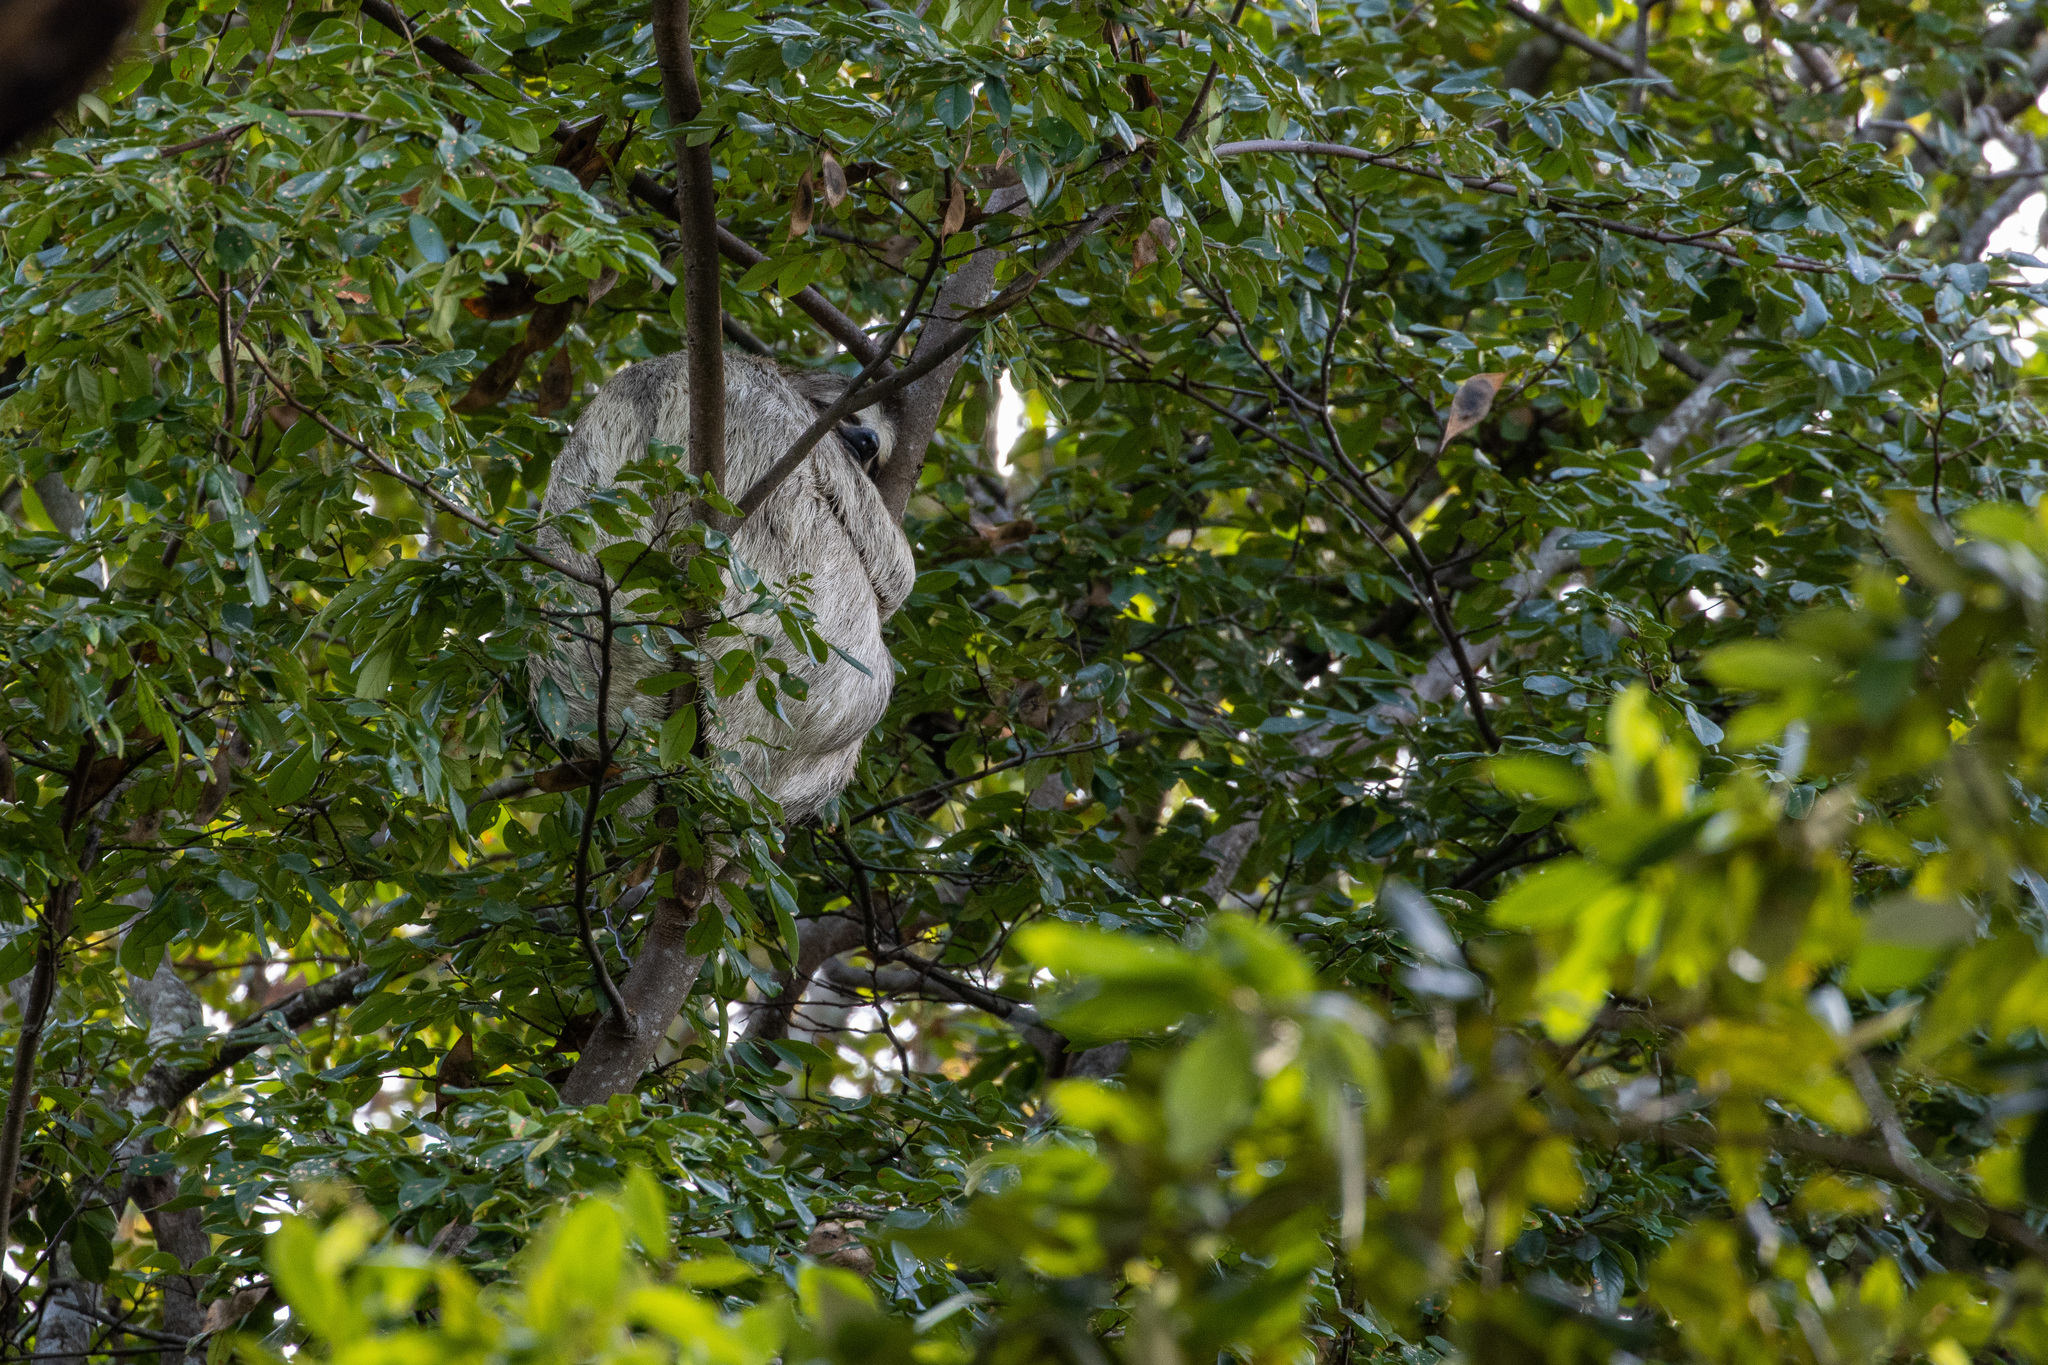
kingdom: Animalia
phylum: Chordata
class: Mammalia
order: Pilosa
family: Bradypodidae
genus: Bradypus
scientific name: Bradypus variegatus
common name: Brown-throated three-toed sloth
